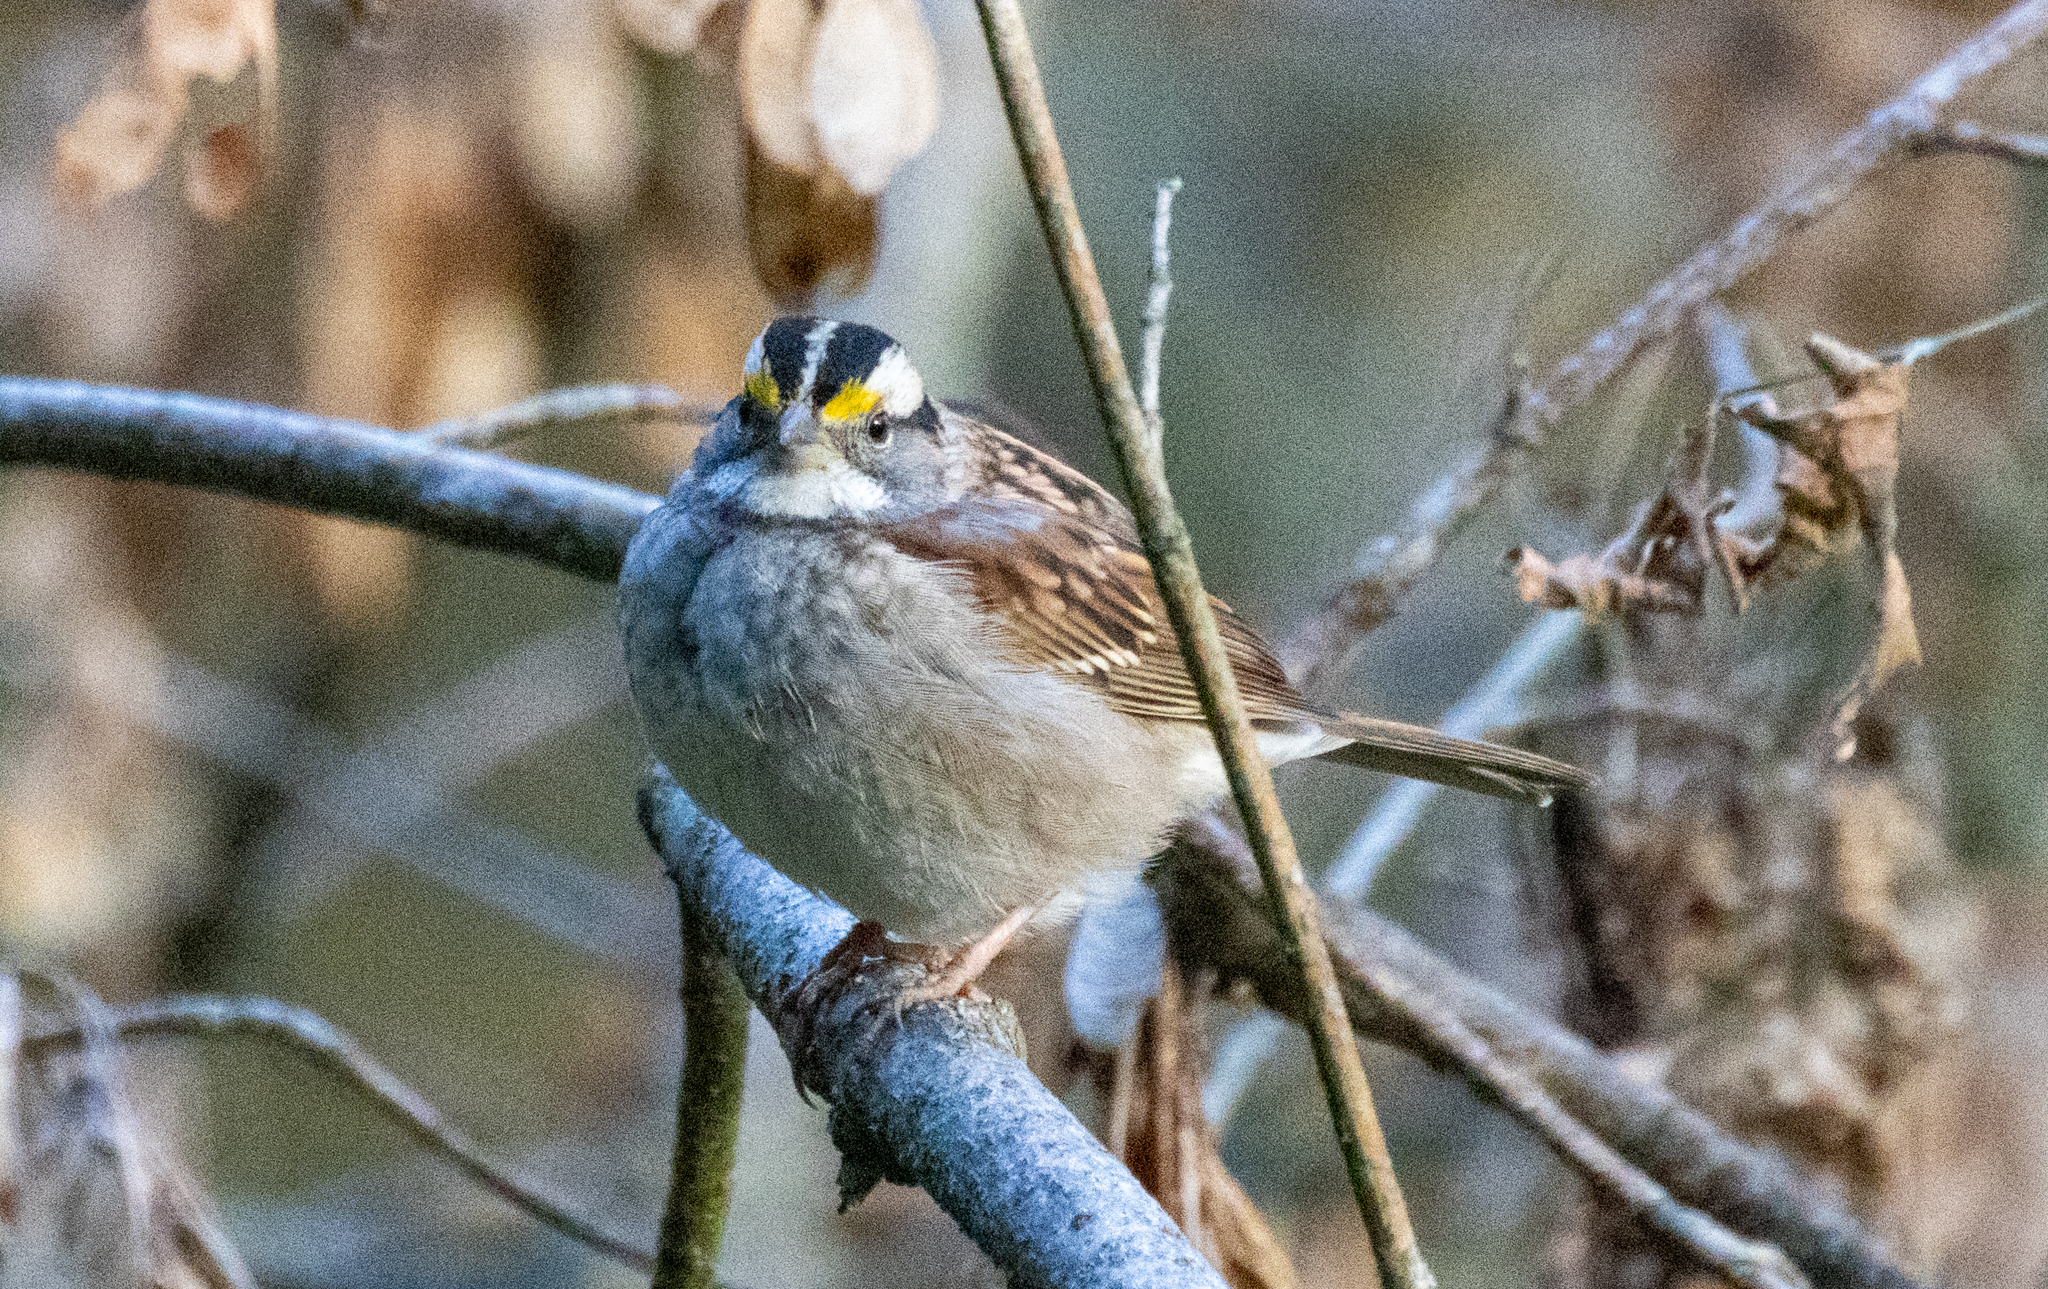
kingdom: Animalia
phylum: Chordata
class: Aves
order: Passeriformes
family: Passerellidae
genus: Zonotrichia
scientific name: Zonotrichia albicollis
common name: White-throated sparrow
